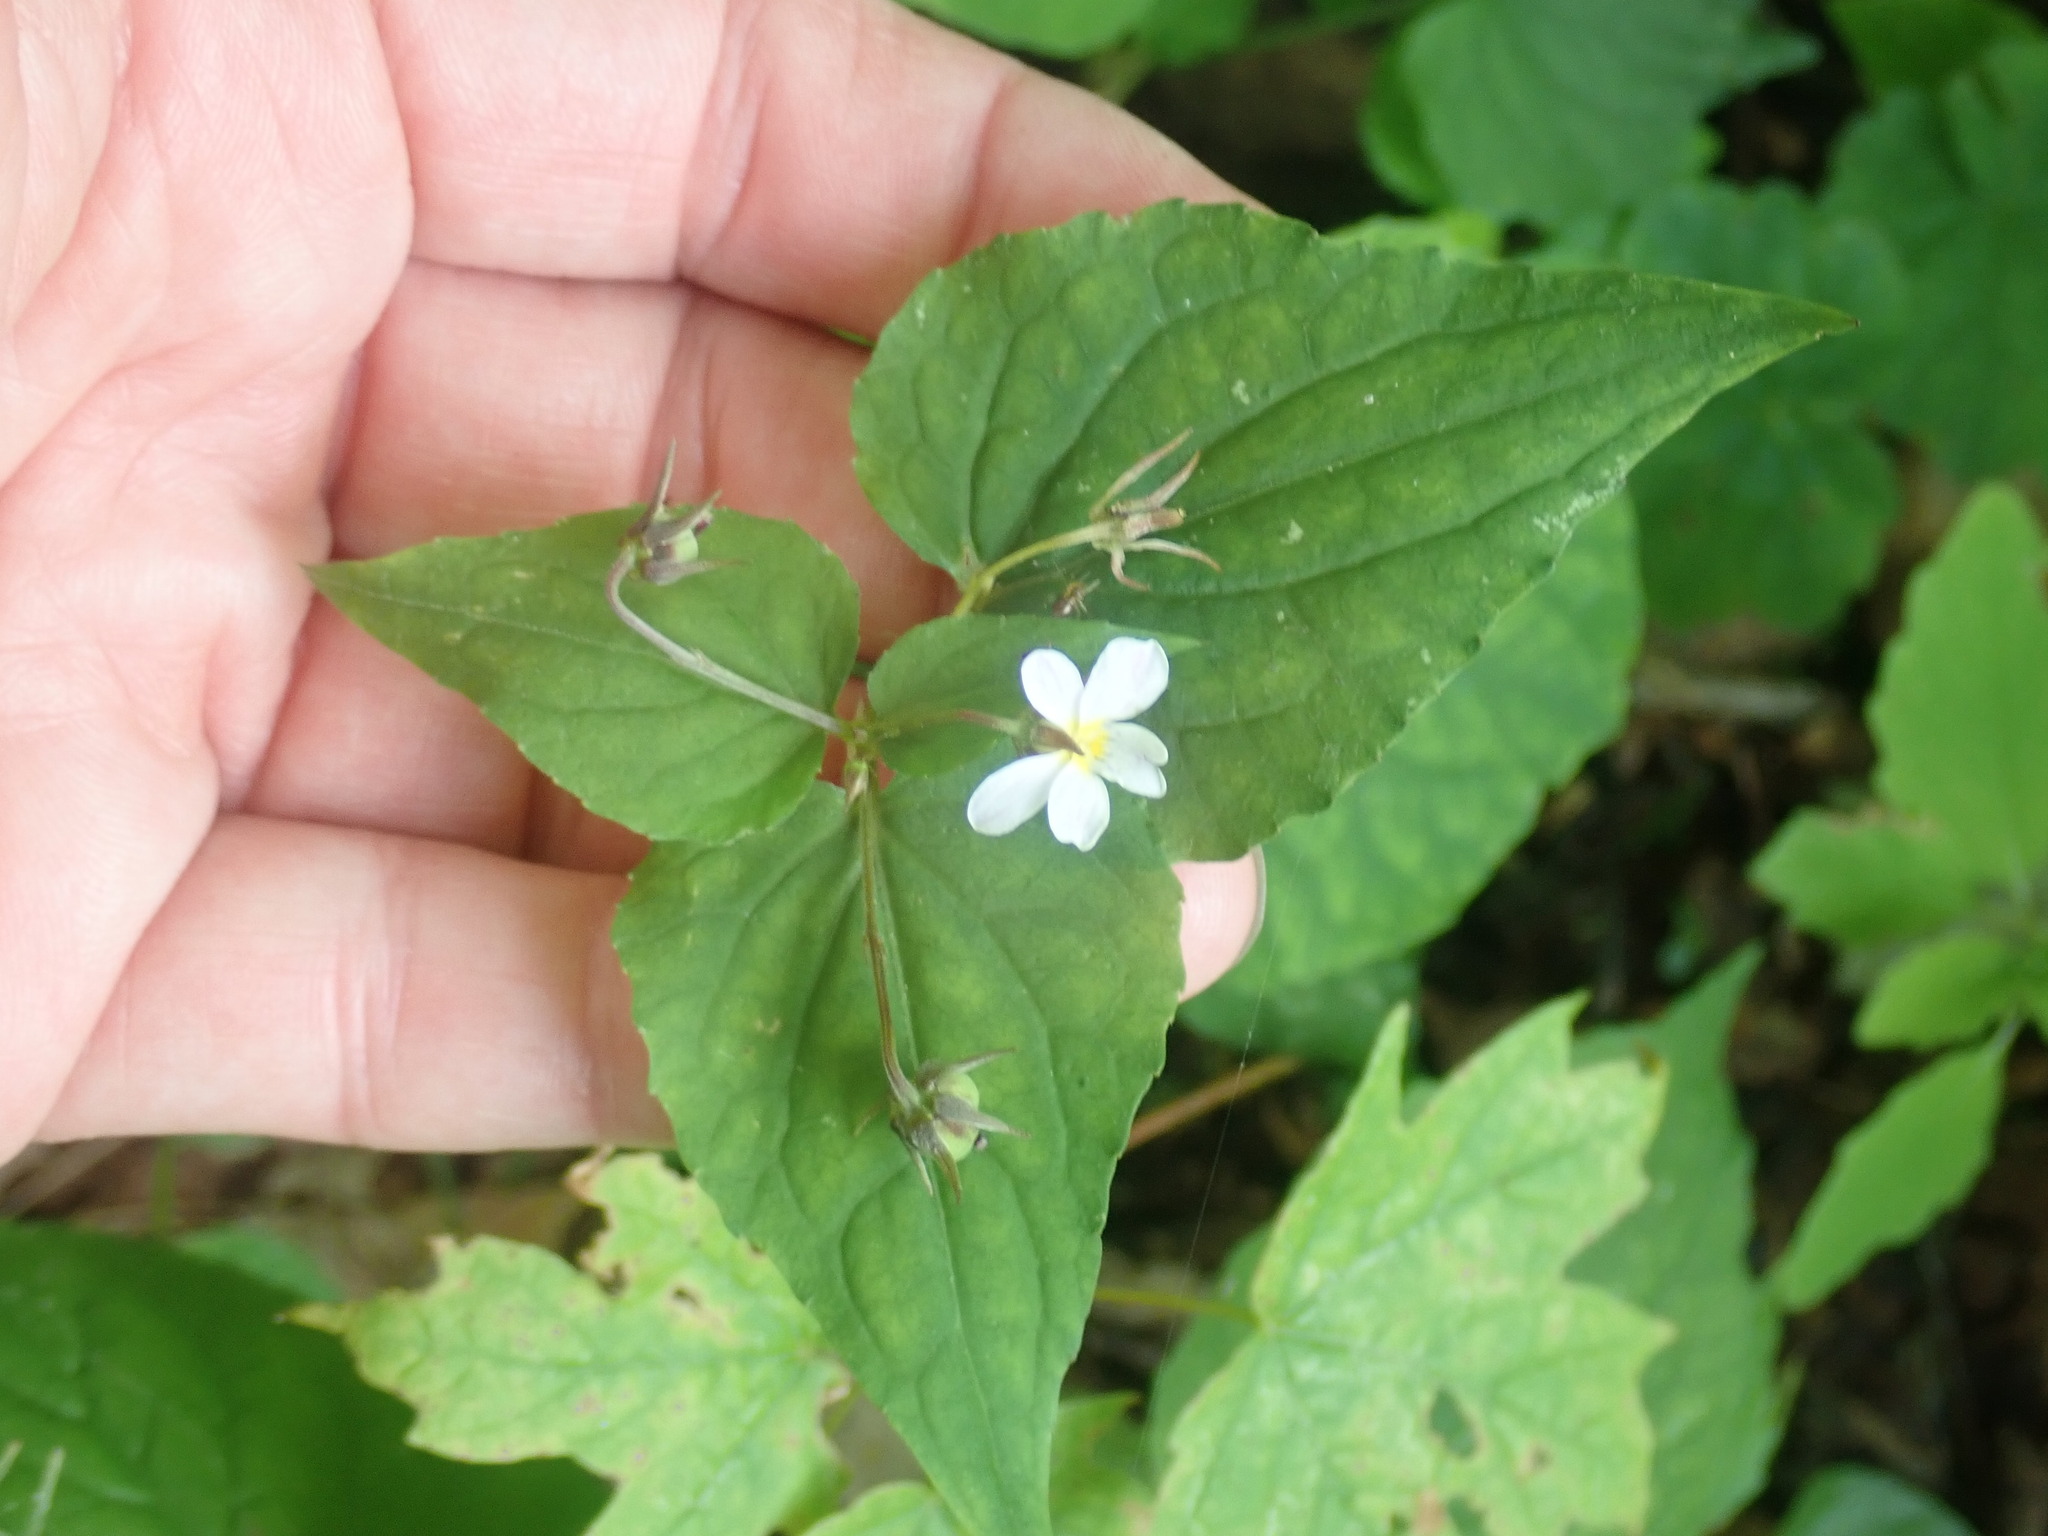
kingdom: Plantae
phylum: Tracheophyta
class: Magnoliopsida
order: Malpighiales
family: Violaceae
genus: Viola
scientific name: Viola canadensis
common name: Canada violet
